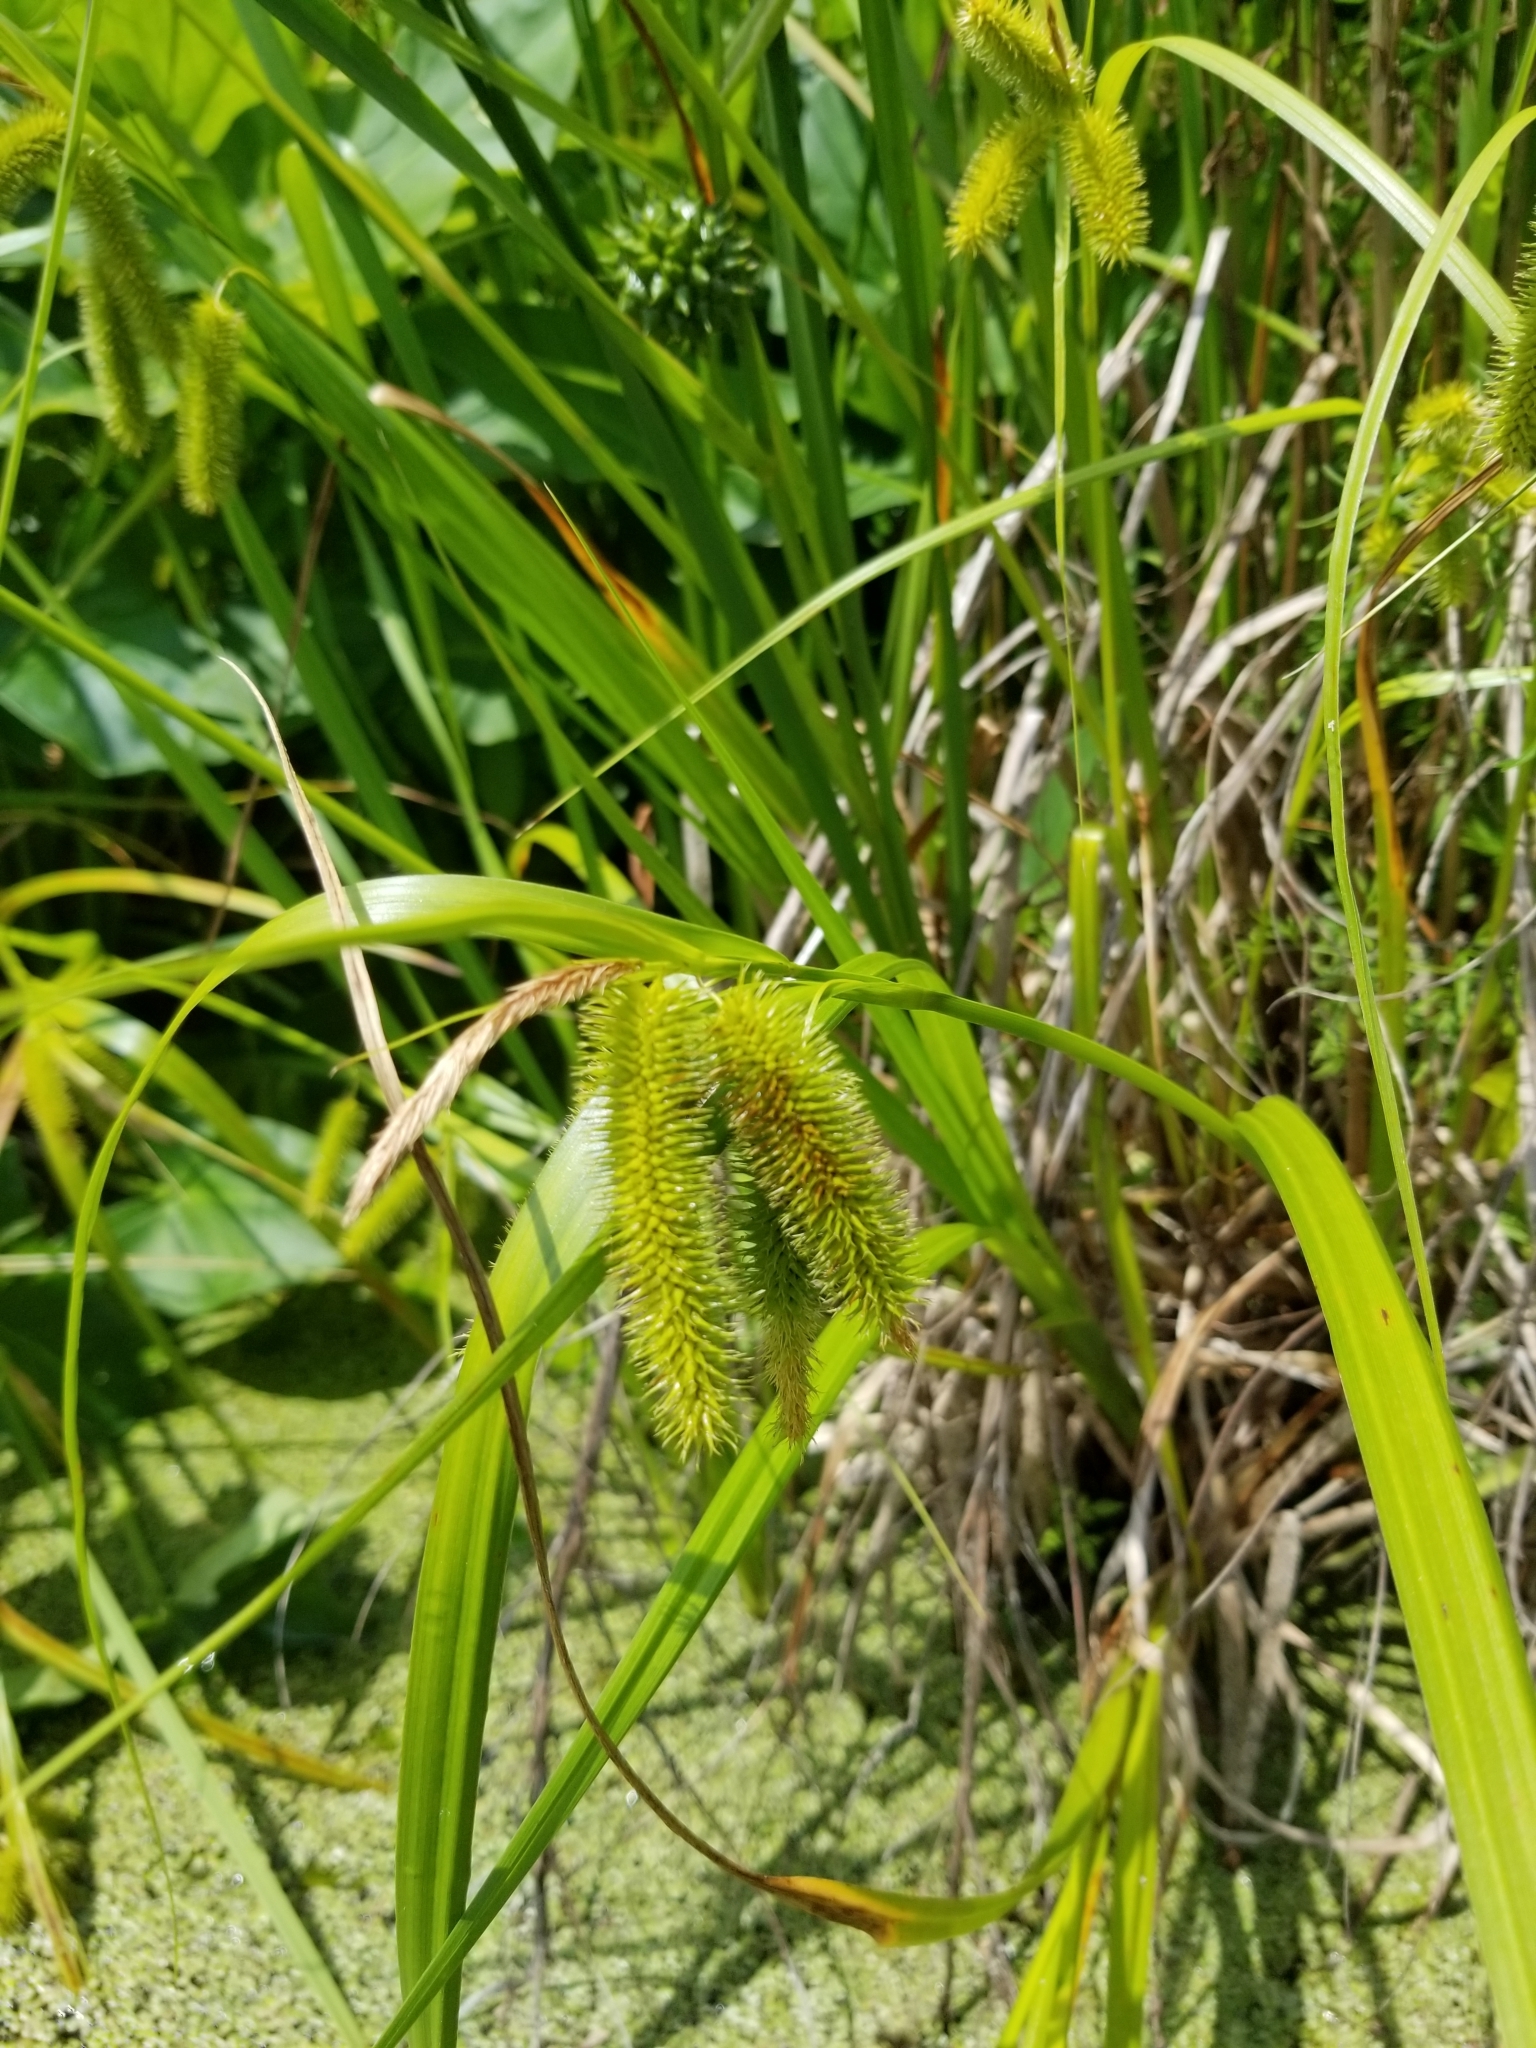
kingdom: Plantae
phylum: Tracheophyta
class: Liliopsida
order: Poales
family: Cyperaceae
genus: Carex
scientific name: Carex comosa
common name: Bristly sedge
